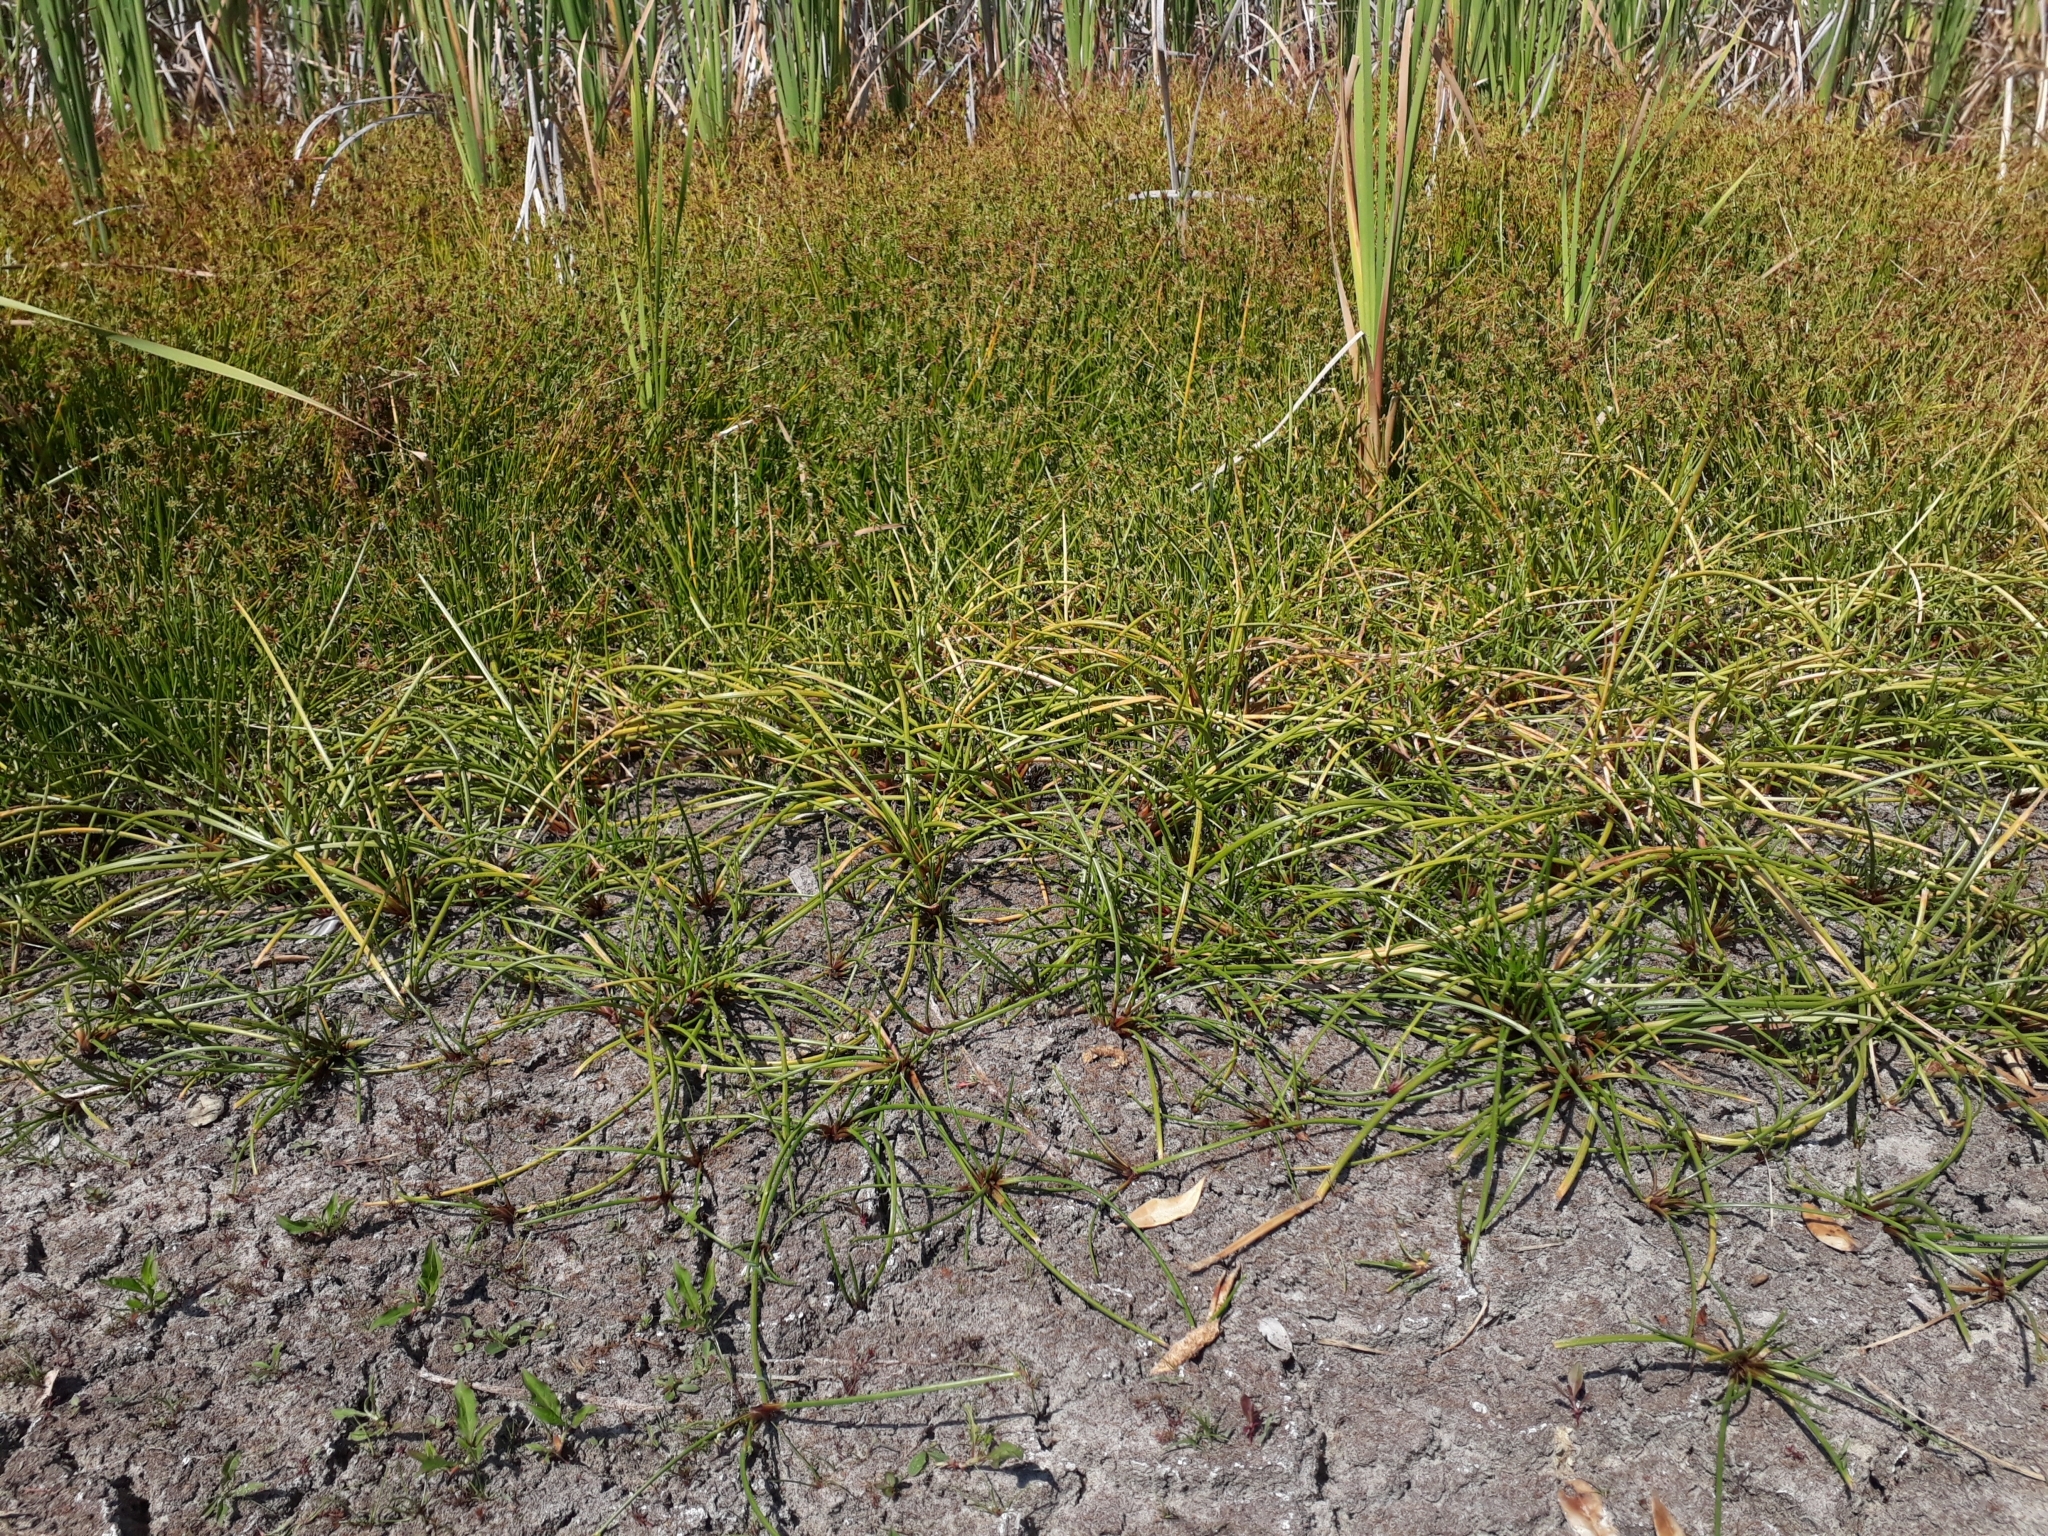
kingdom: Plantae
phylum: Tracheophyta
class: Liliopsida
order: Poales
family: Cyperaceae
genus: Isolepis
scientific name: Isolepis prolifera
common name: Proliferating bulrush
